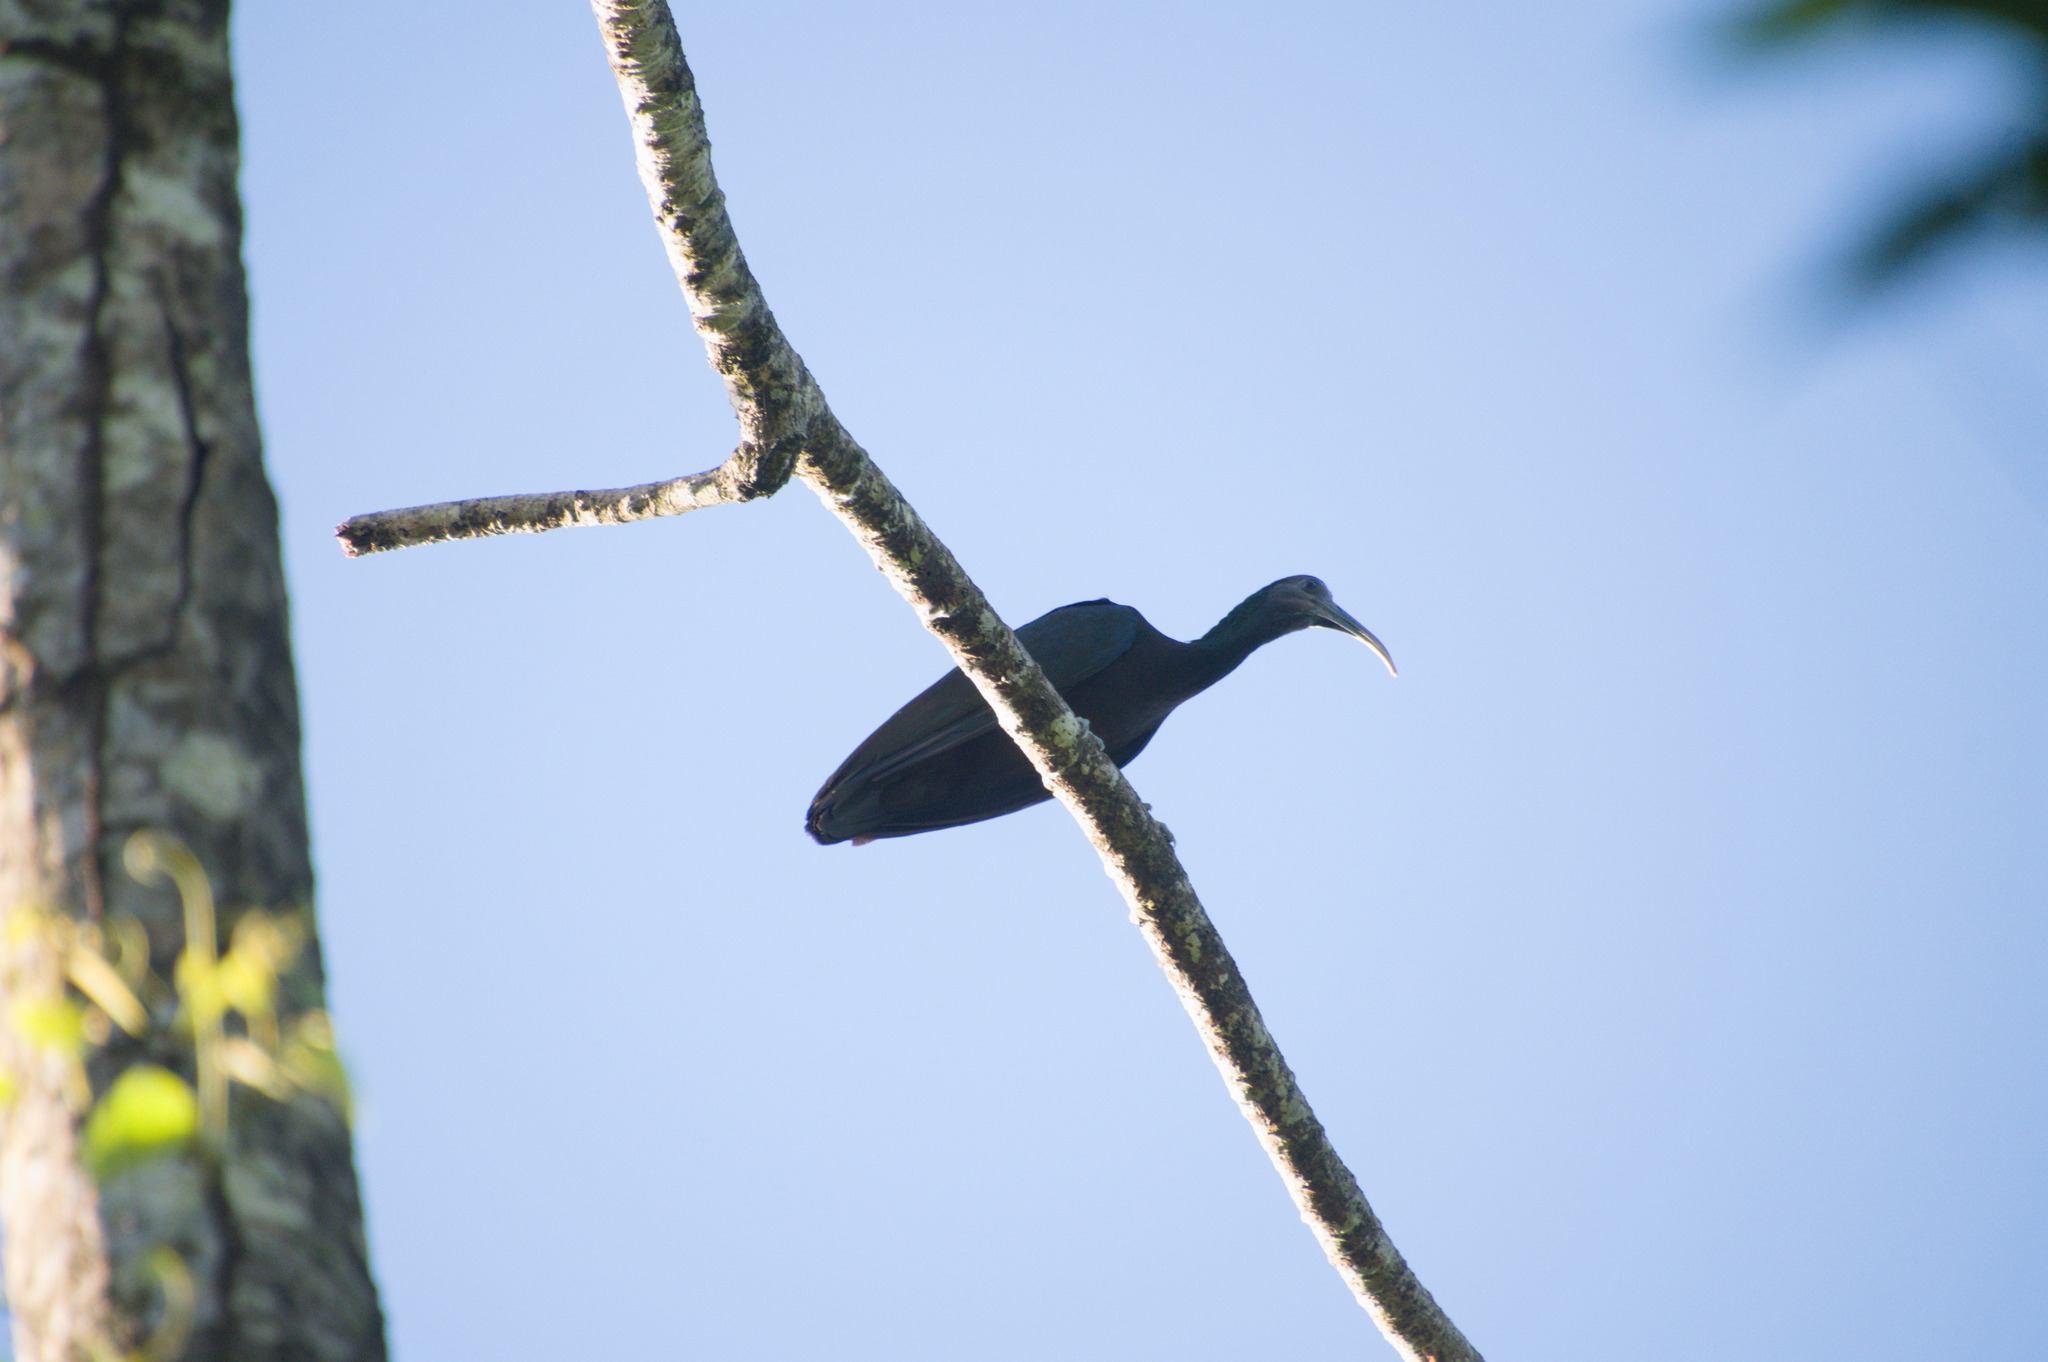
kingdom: Animalia
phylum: Chordata
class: Aves
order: Pelecaniformes
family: Threskiornithidae
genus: Mesembrinibis
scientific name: Mesembrinibis cayennensis
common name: Green ibis
